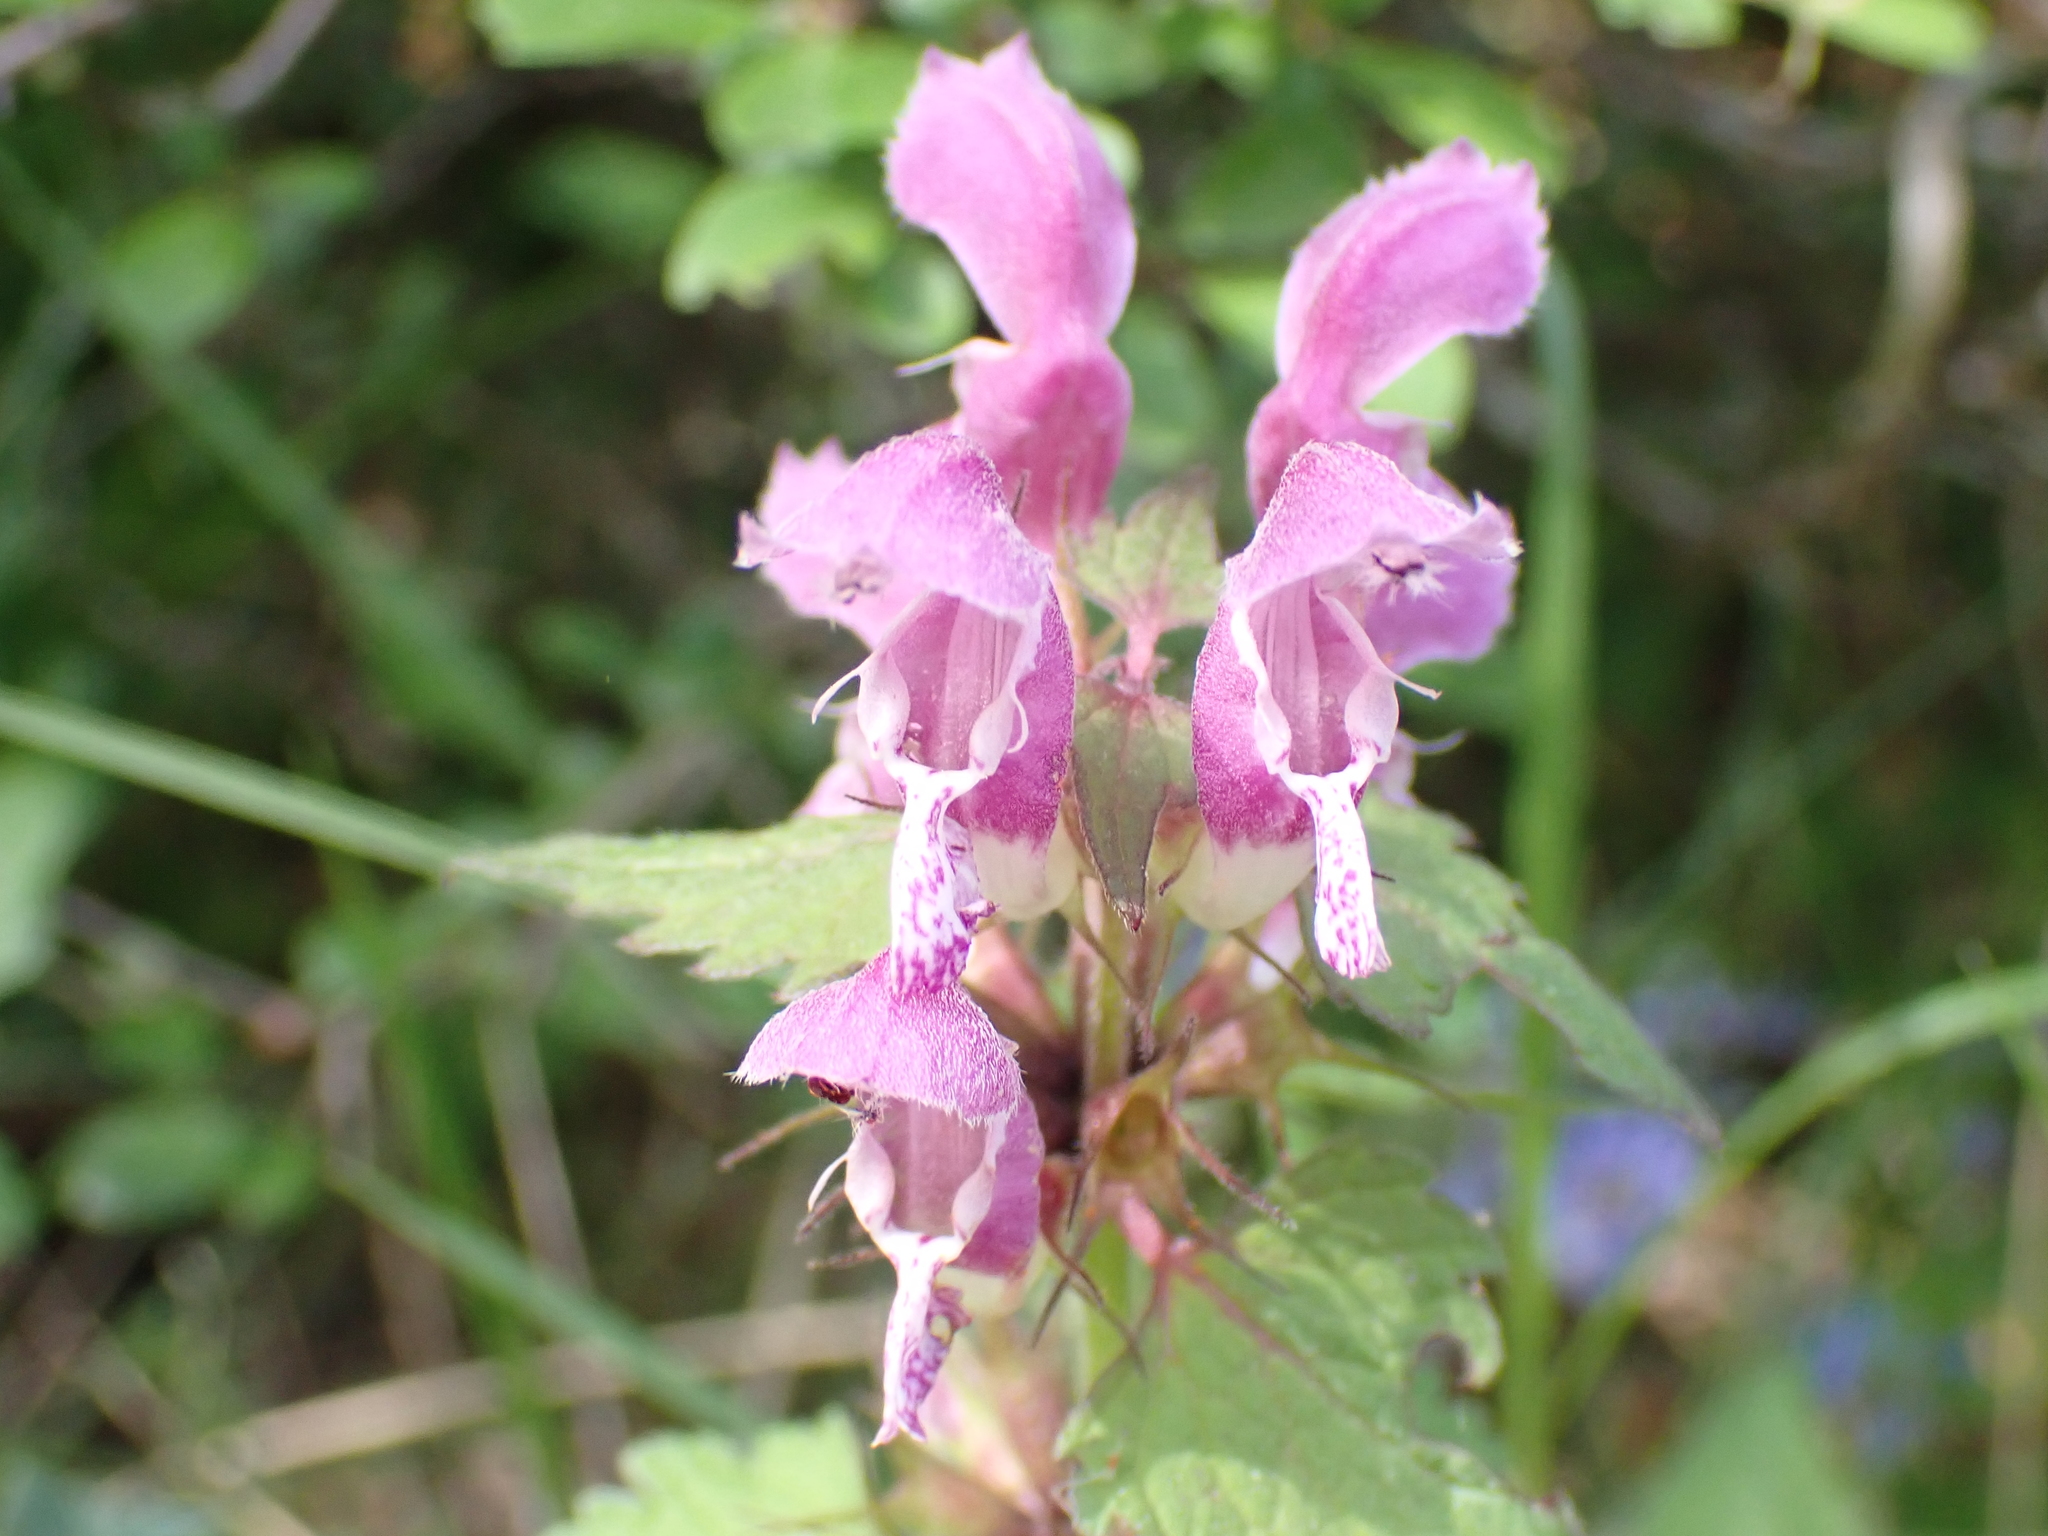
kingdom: Plantae
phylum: Tracheophyta
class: Magnoliopsida
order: Lamiales
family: Lamiaceae
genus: Lamium
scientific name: Lamium maculatum
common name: Spotted dead-nettle
